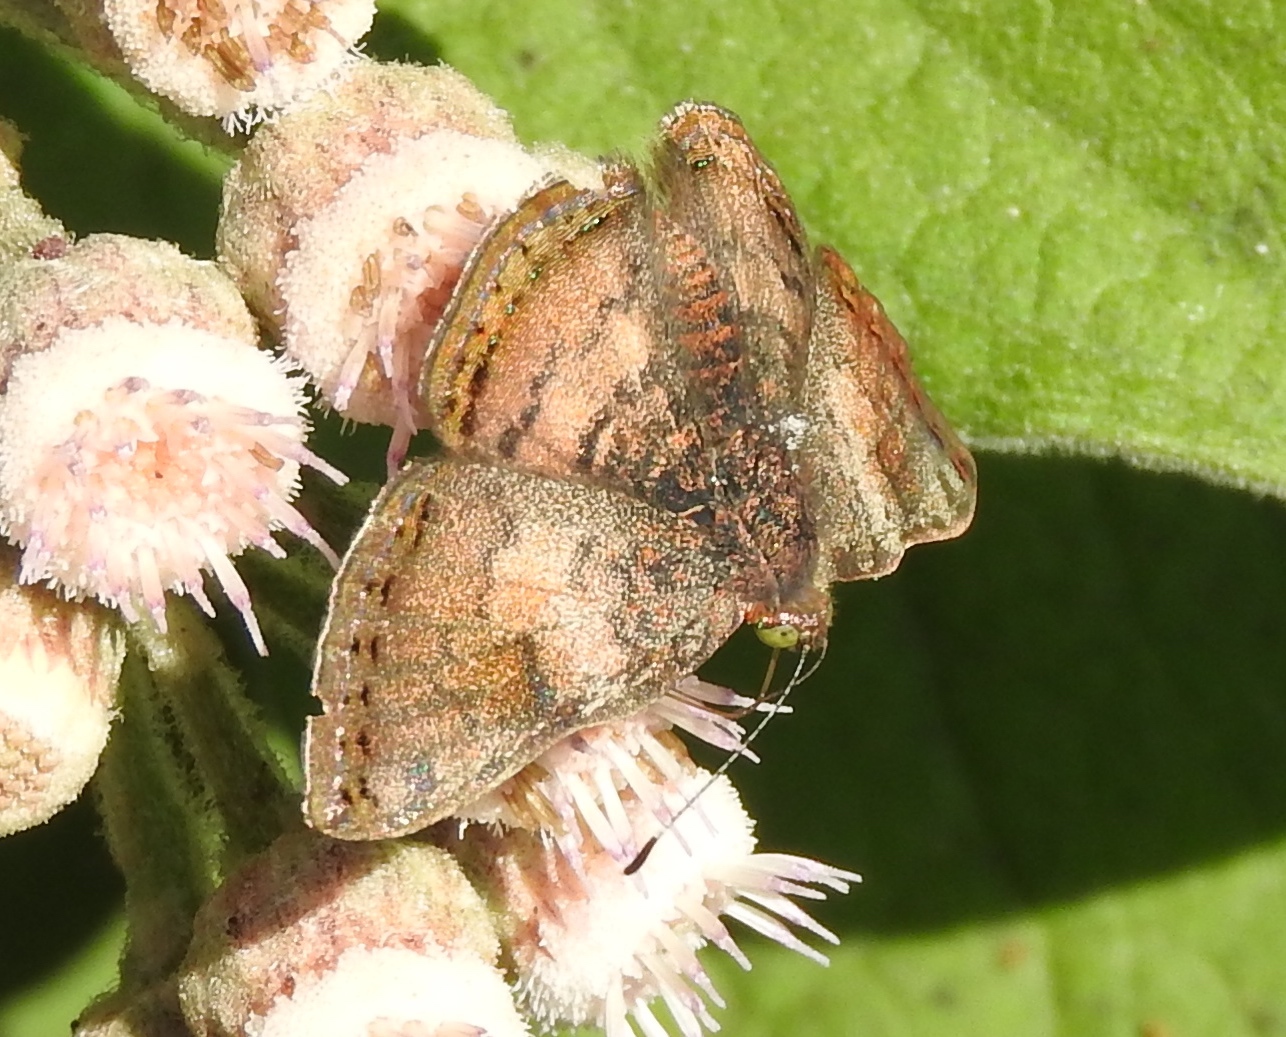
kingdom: Animalia
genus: Caria
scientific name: Caria ino
